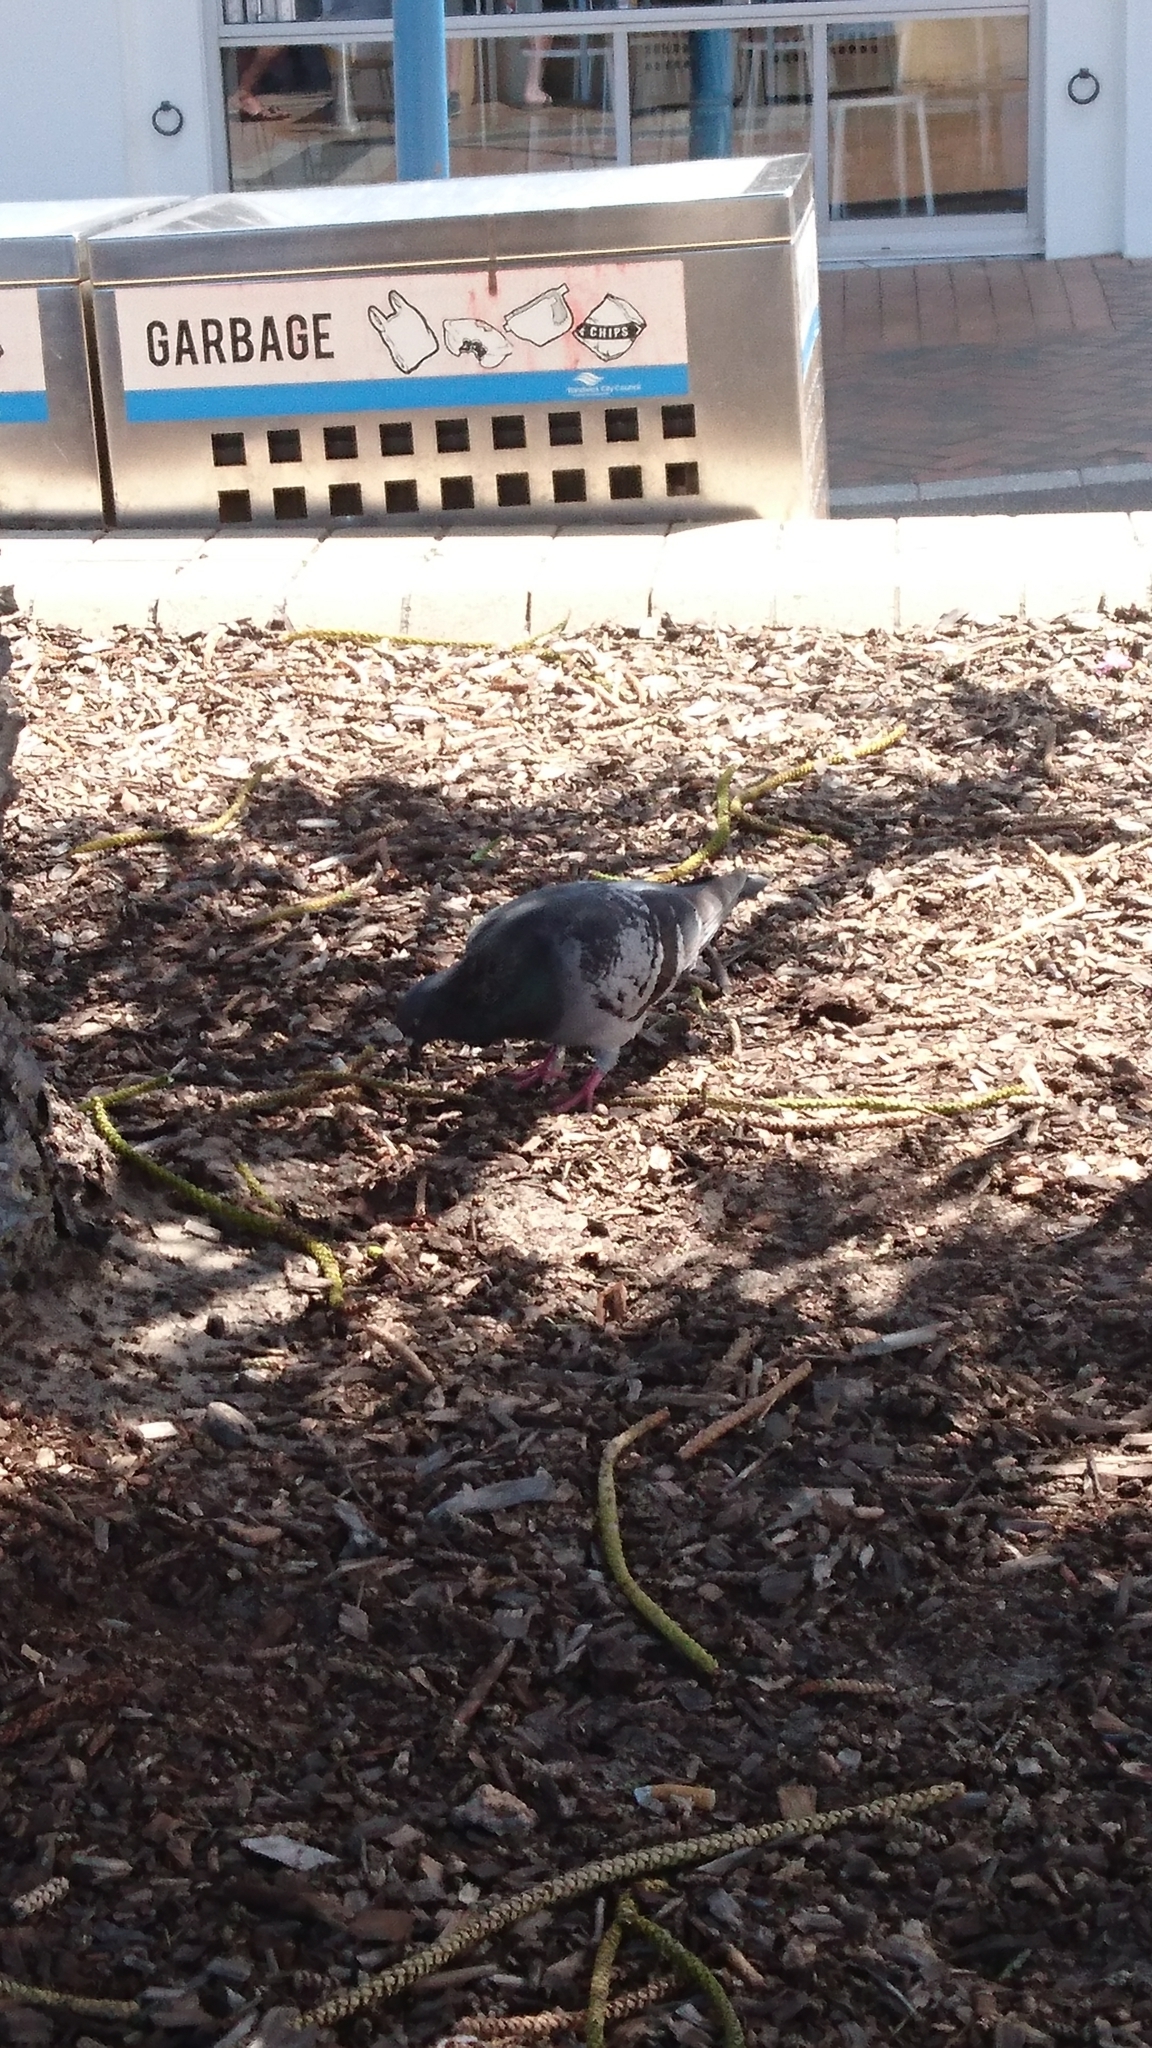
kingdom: Animalia
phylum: Chordata
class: Aves
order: Columbiformes
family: Columbidae
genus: Columba
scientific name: Columba livia
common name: Rock pigeon
